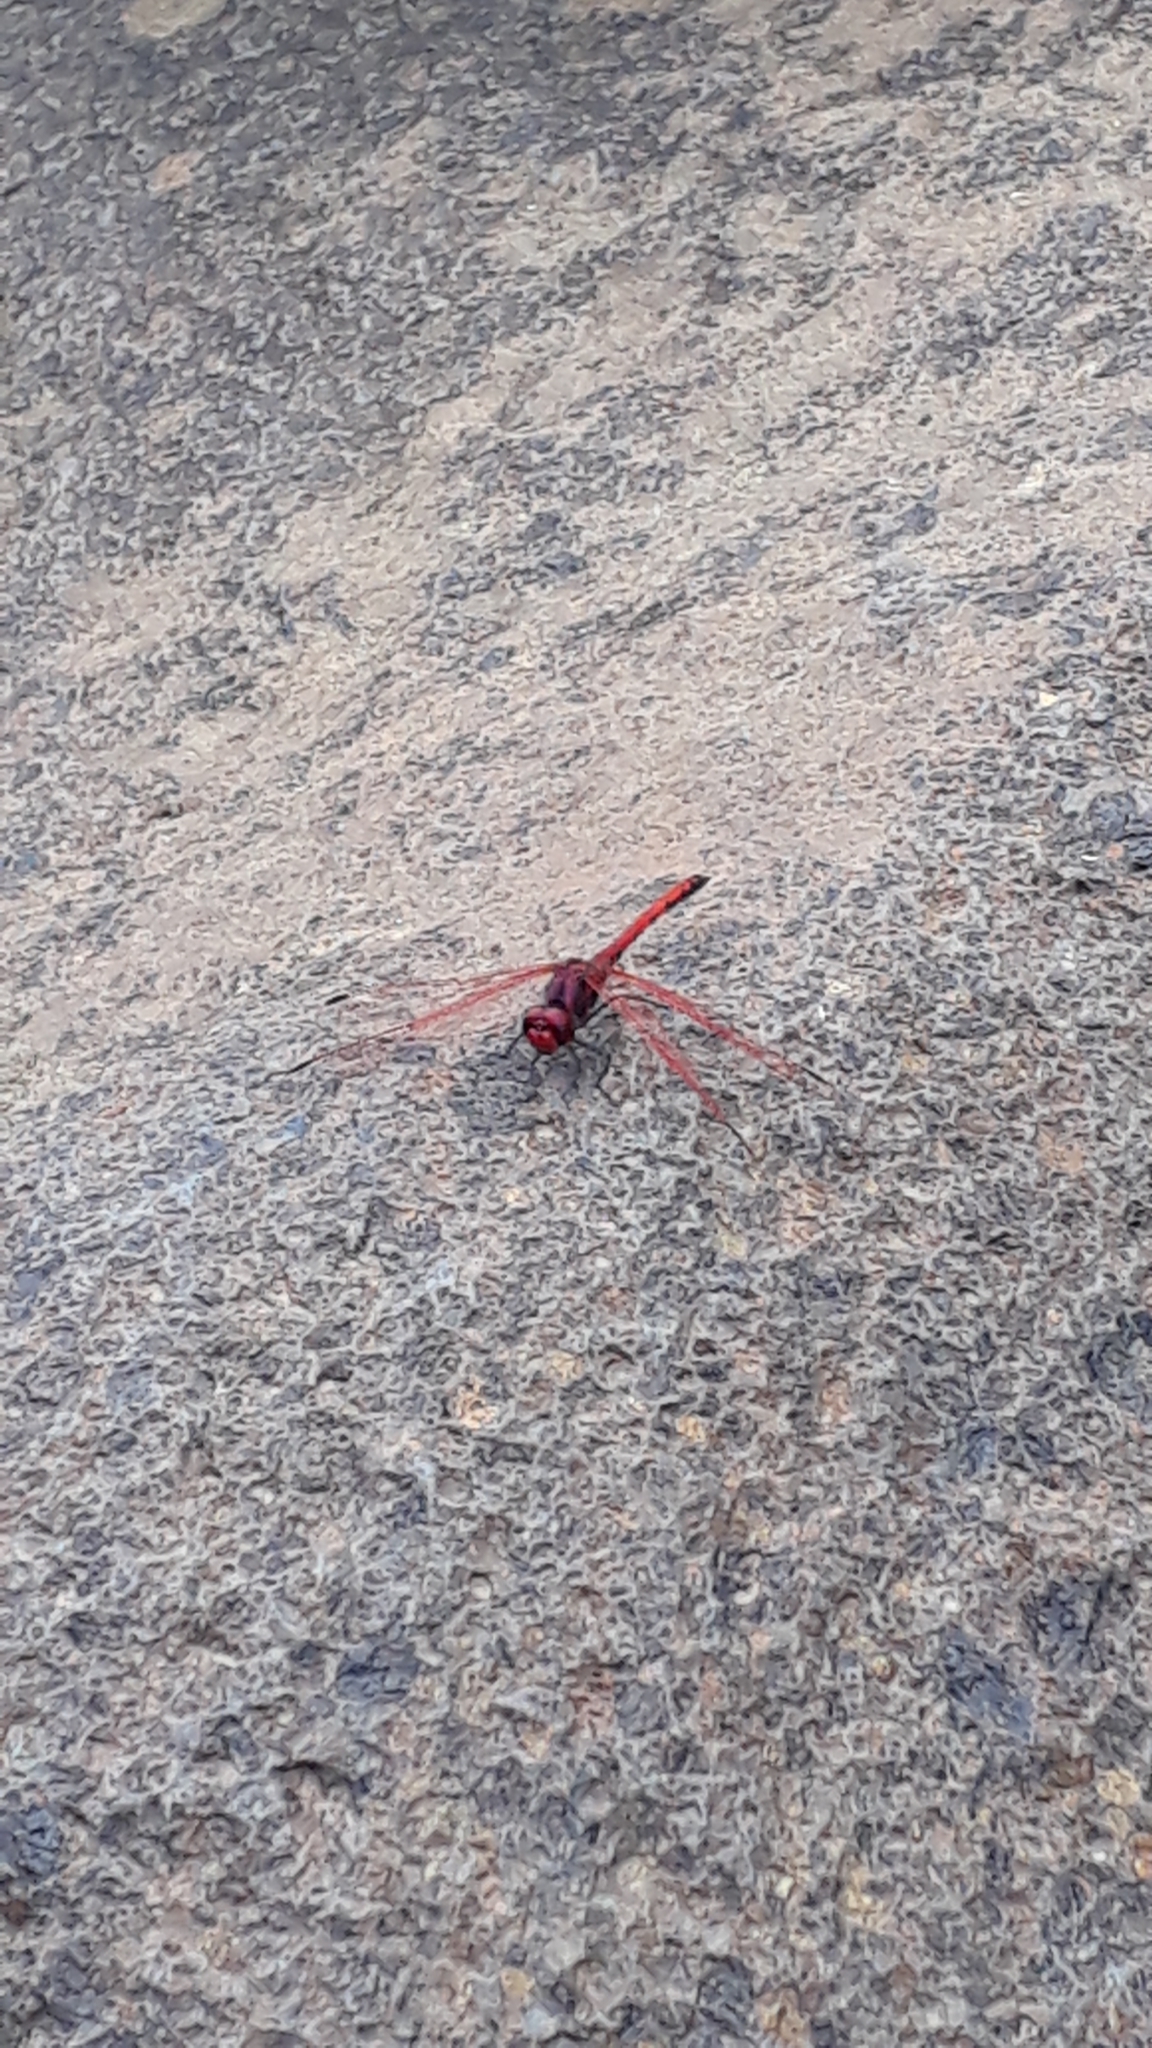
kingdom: Animalia
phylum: Arthropoda
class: Insecta
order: Odonata
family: Libellulidae
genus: Trithemis
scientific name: Trithemis arteriosa
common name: Red-veined dropwing
